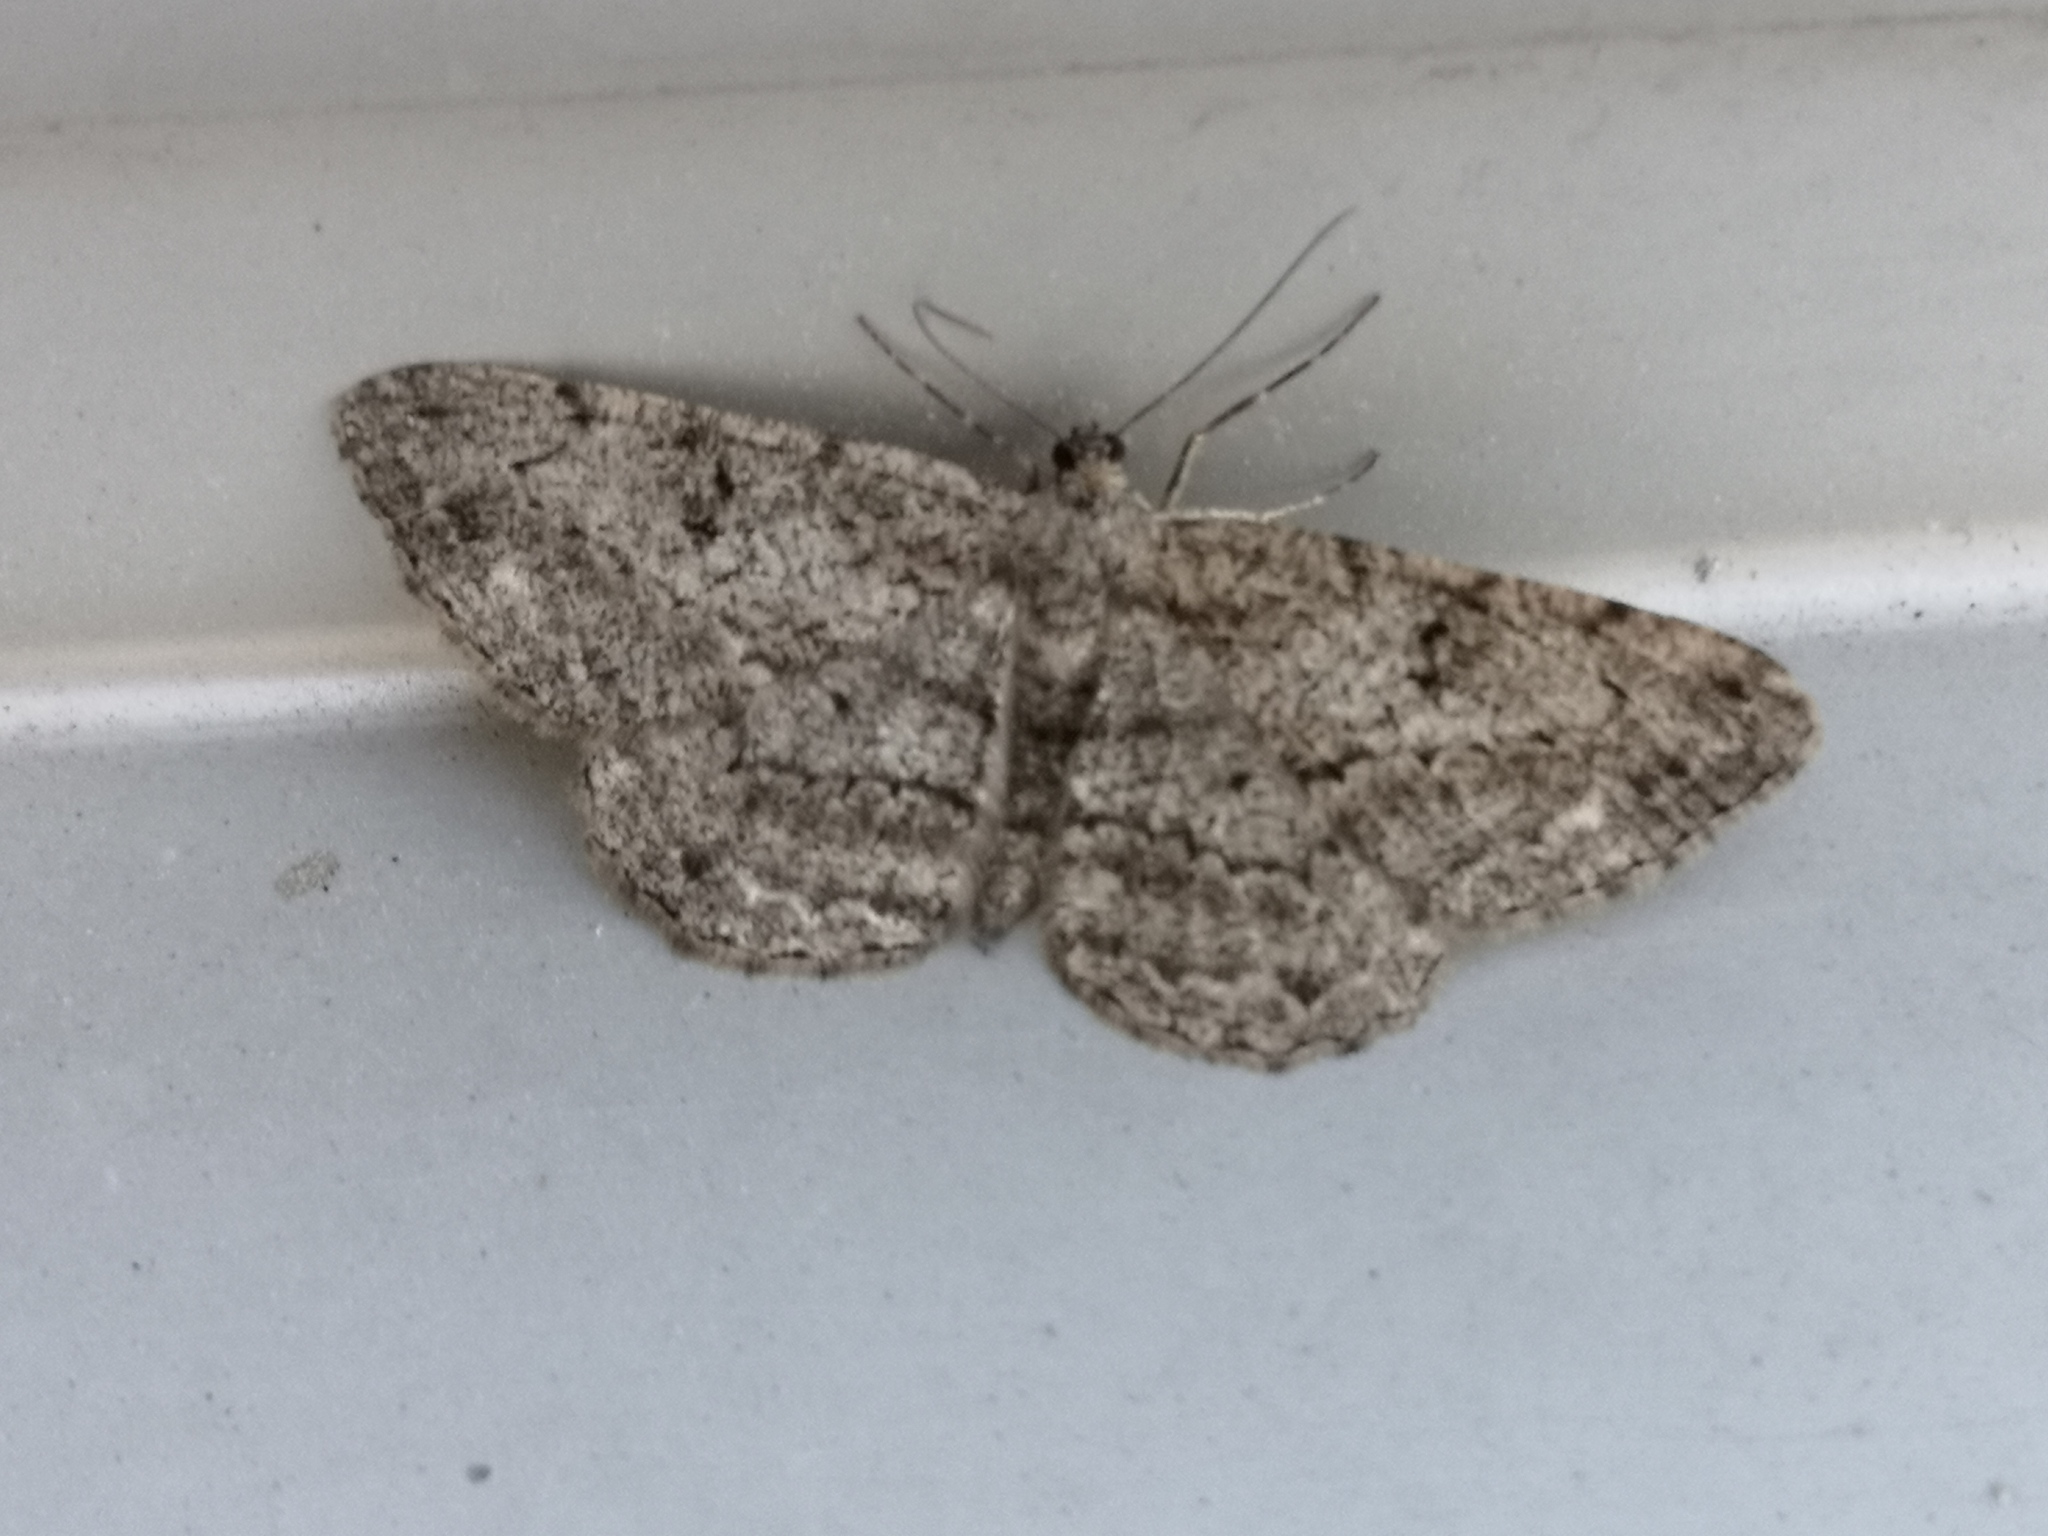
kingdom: Animalia
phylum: Arthropoda
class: Insecta
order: Lepidoptera
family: Geometridae
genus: Peribatodes
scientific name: Peribatodes rhomboidaria
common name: Willow beauty
